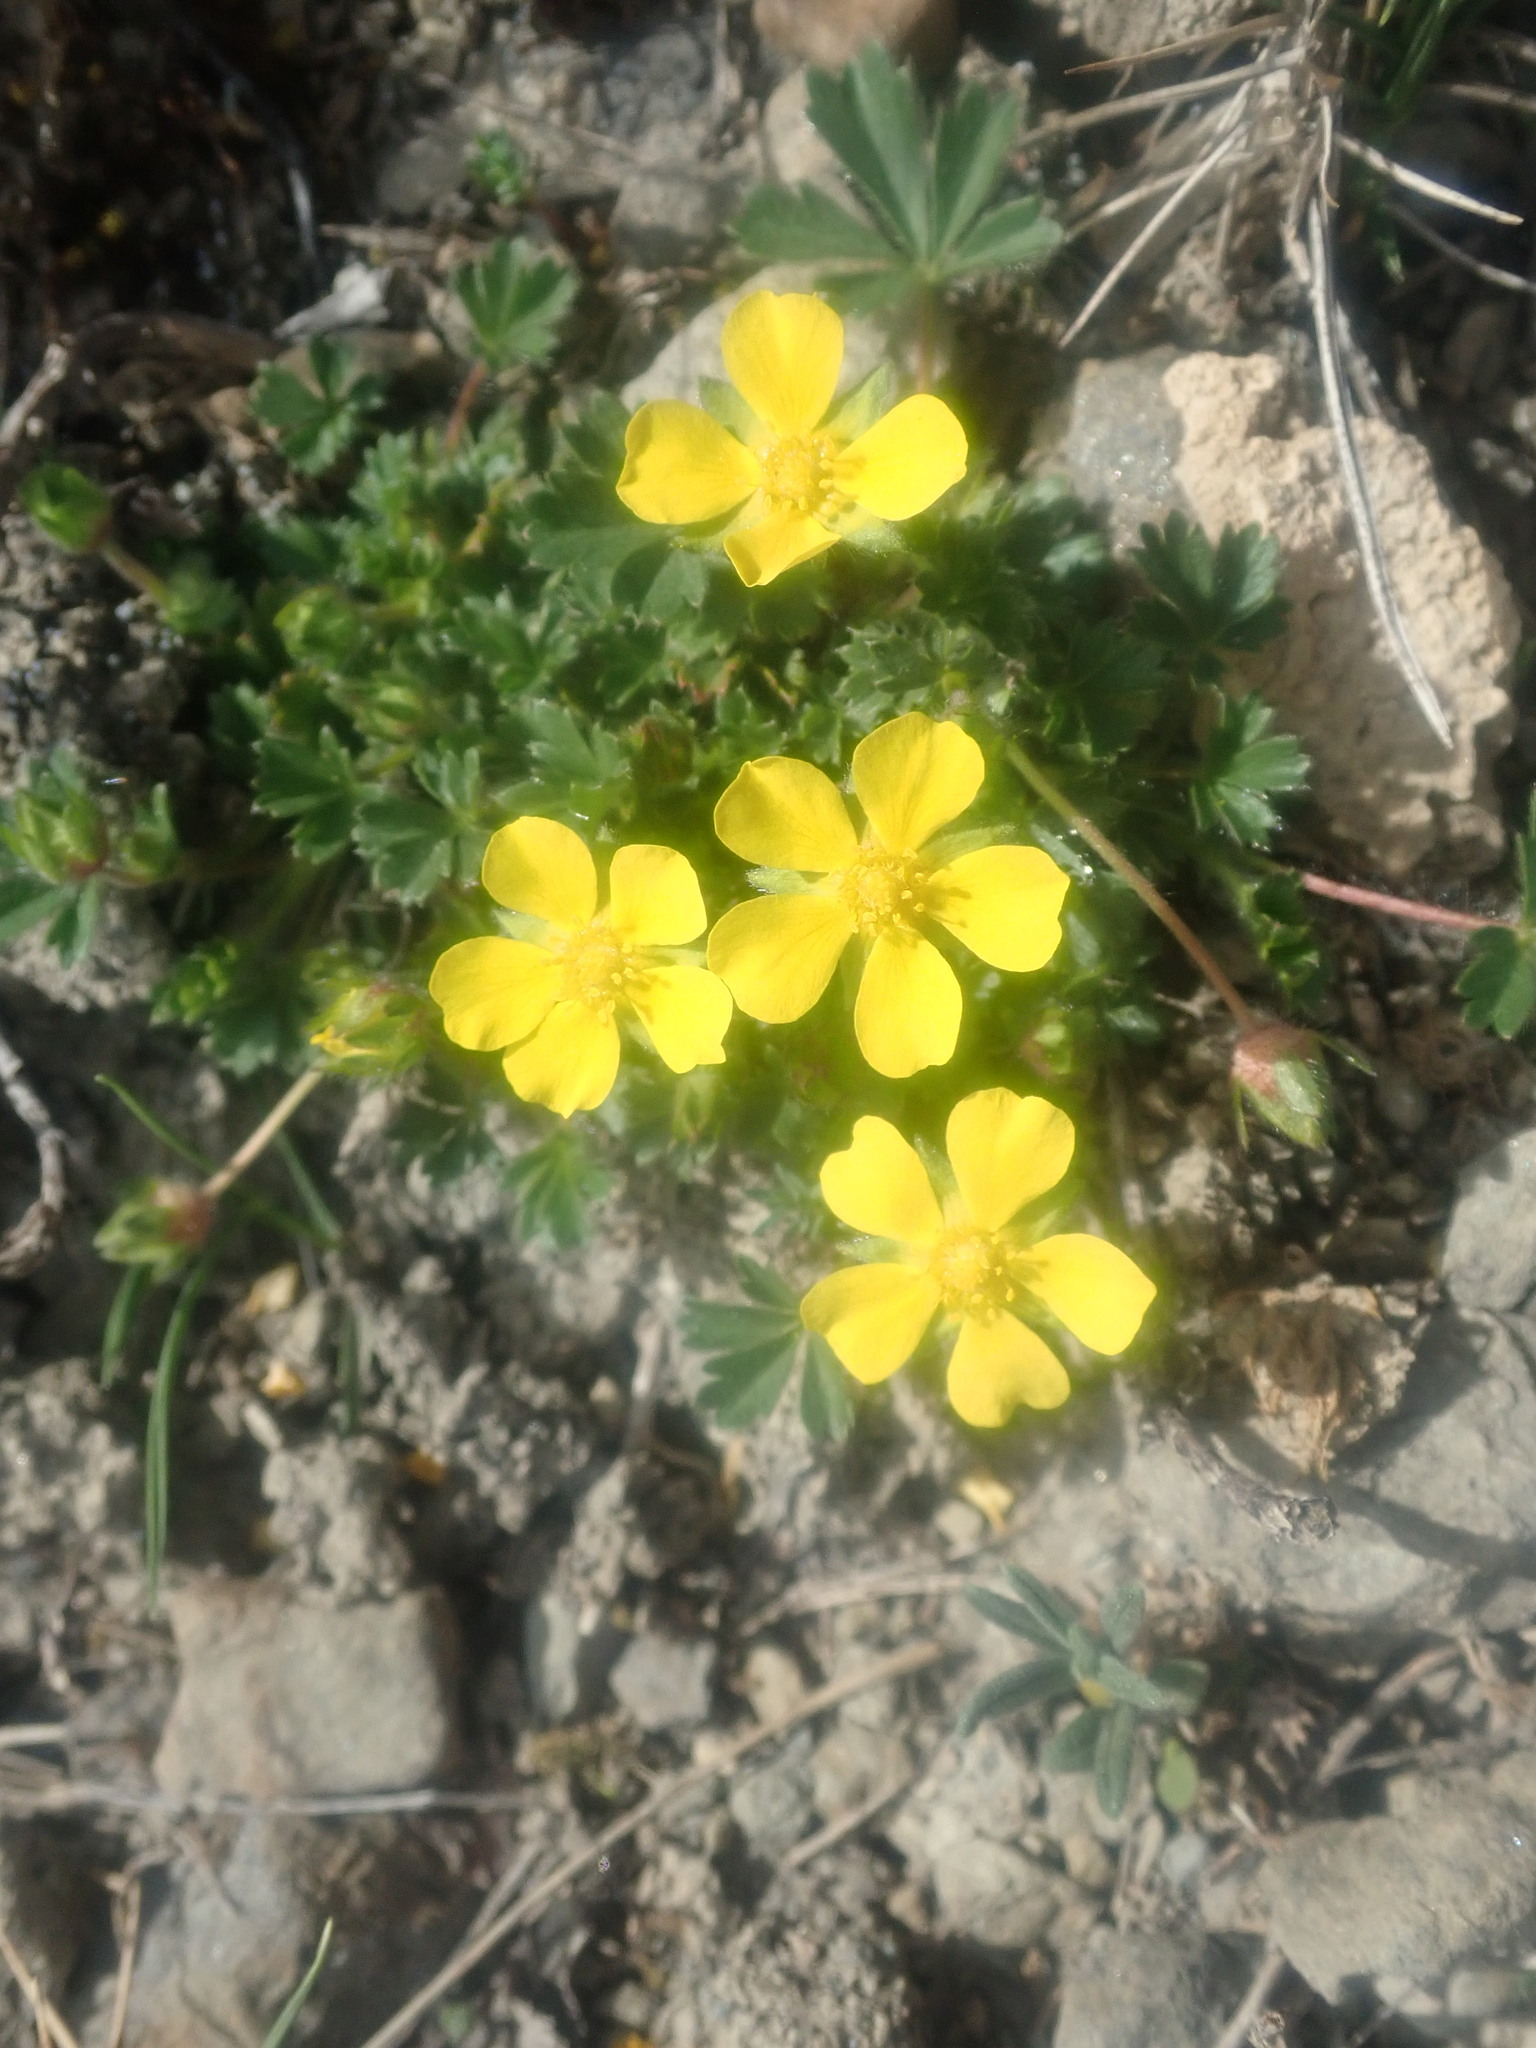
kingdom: Plantae
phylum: Tracheophyta
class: Magnoliopsida
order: Rosales
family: Rosaceae
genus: Potentilla
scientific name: Potentilla verna
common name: Spring cinquefoil
